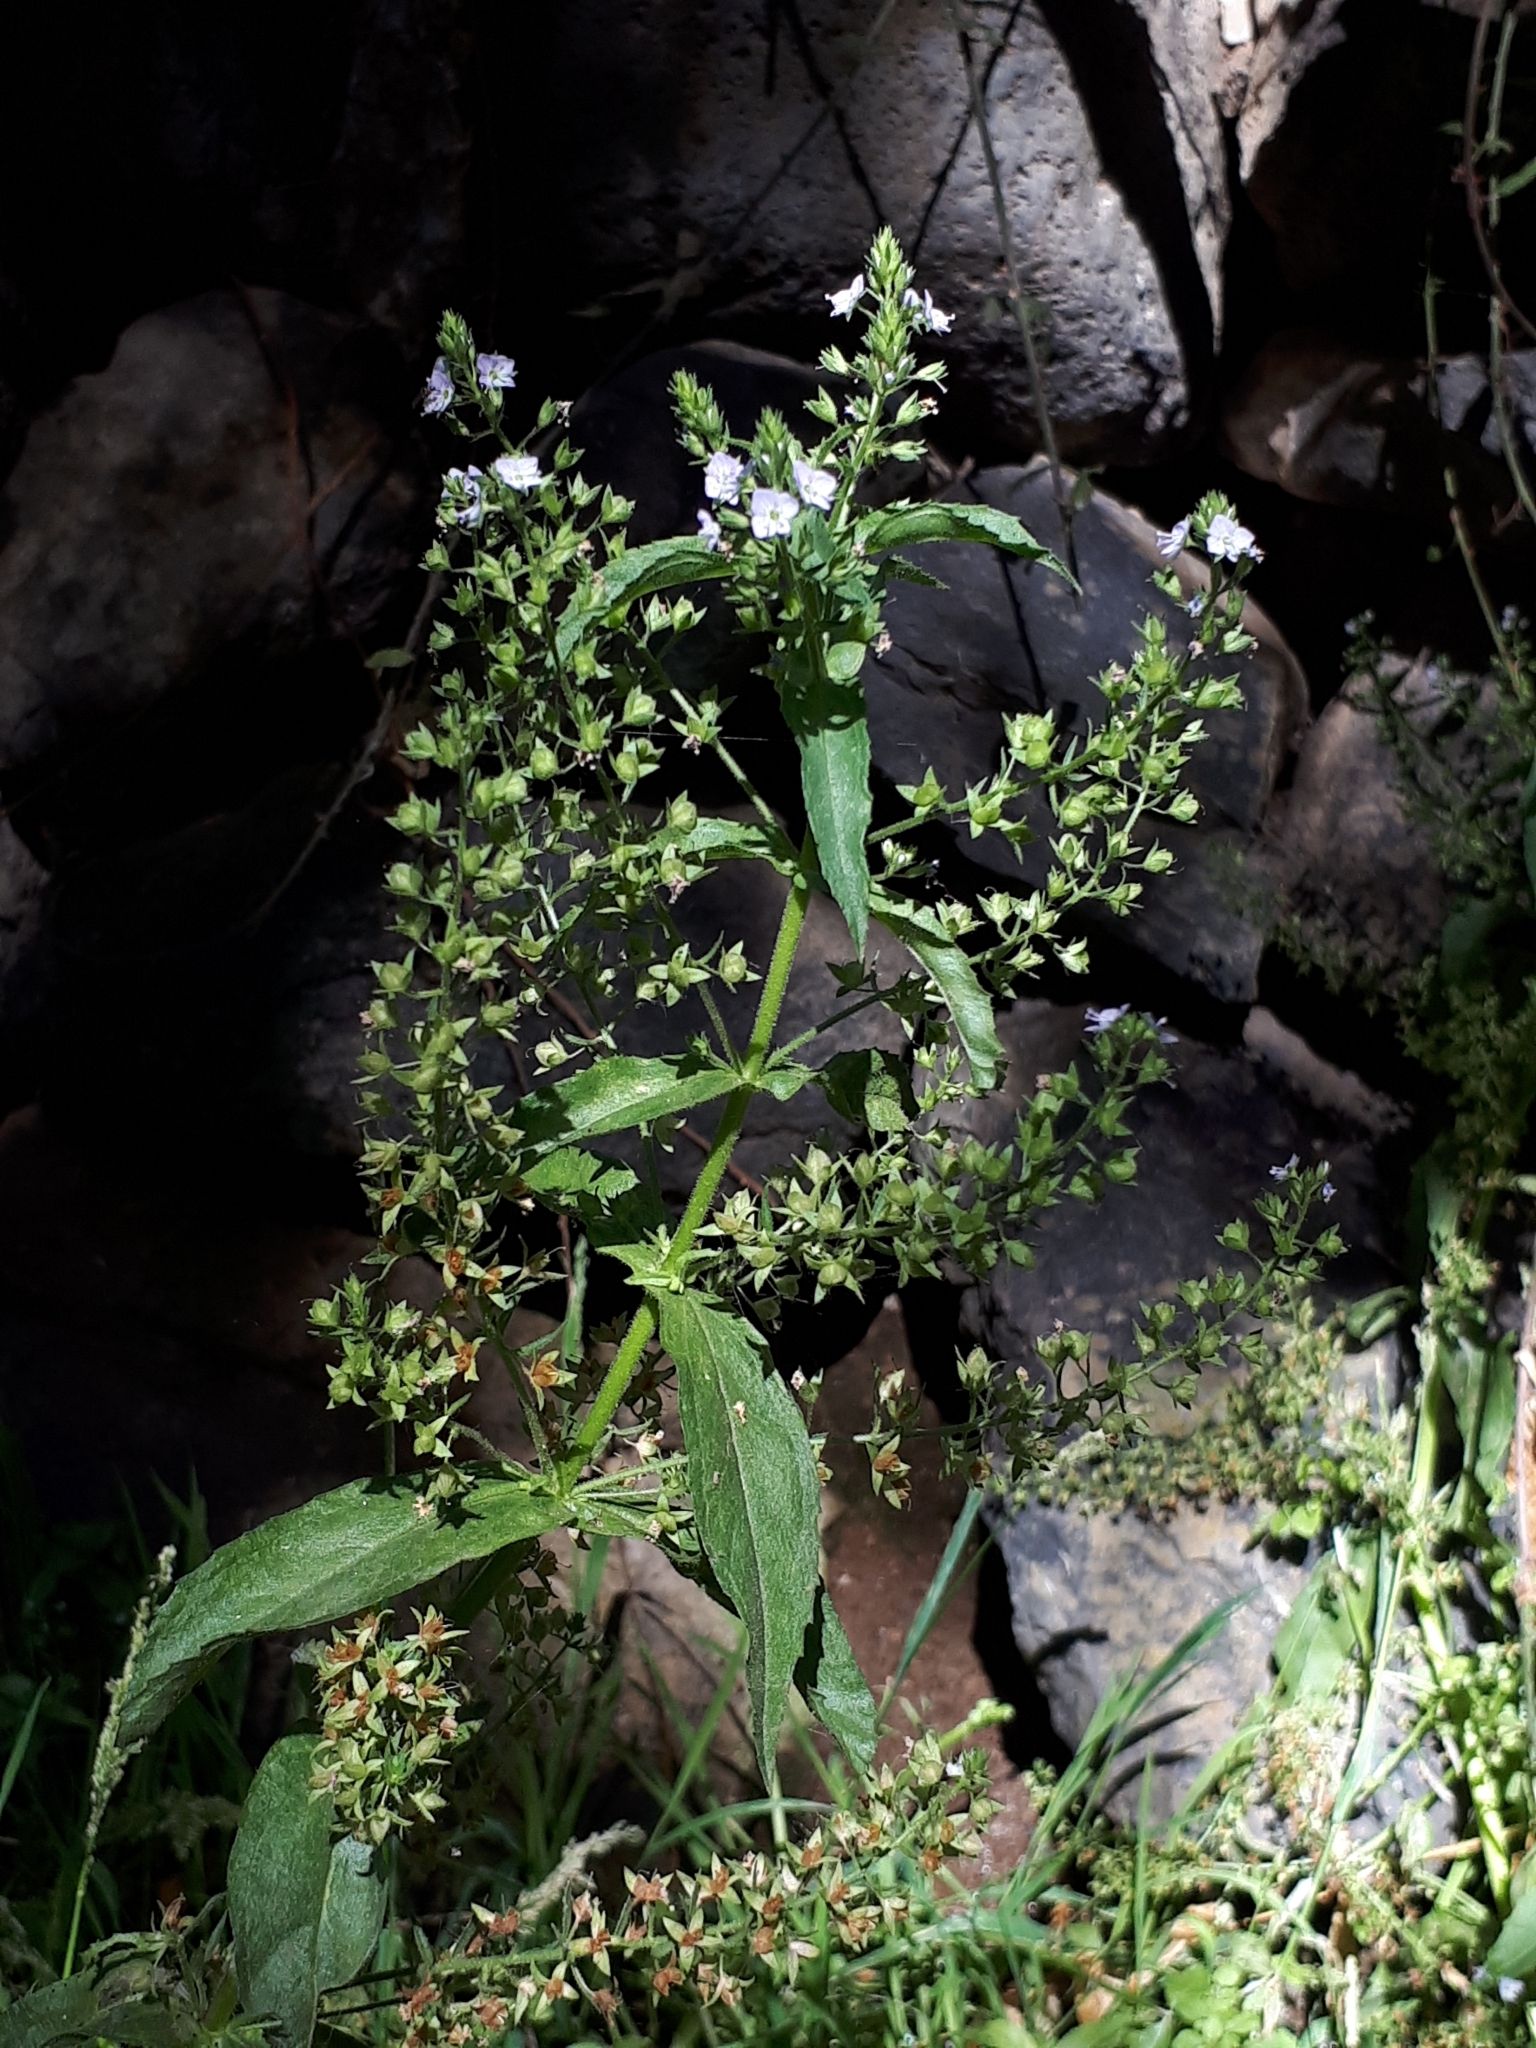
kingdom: Plantae
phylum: Tracheophyta
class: Magnoliopsida
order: Lamiales
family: Plantaginaceae
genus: Veronica
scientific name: Veronica anagallis-aquatica
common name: Water speedwell
